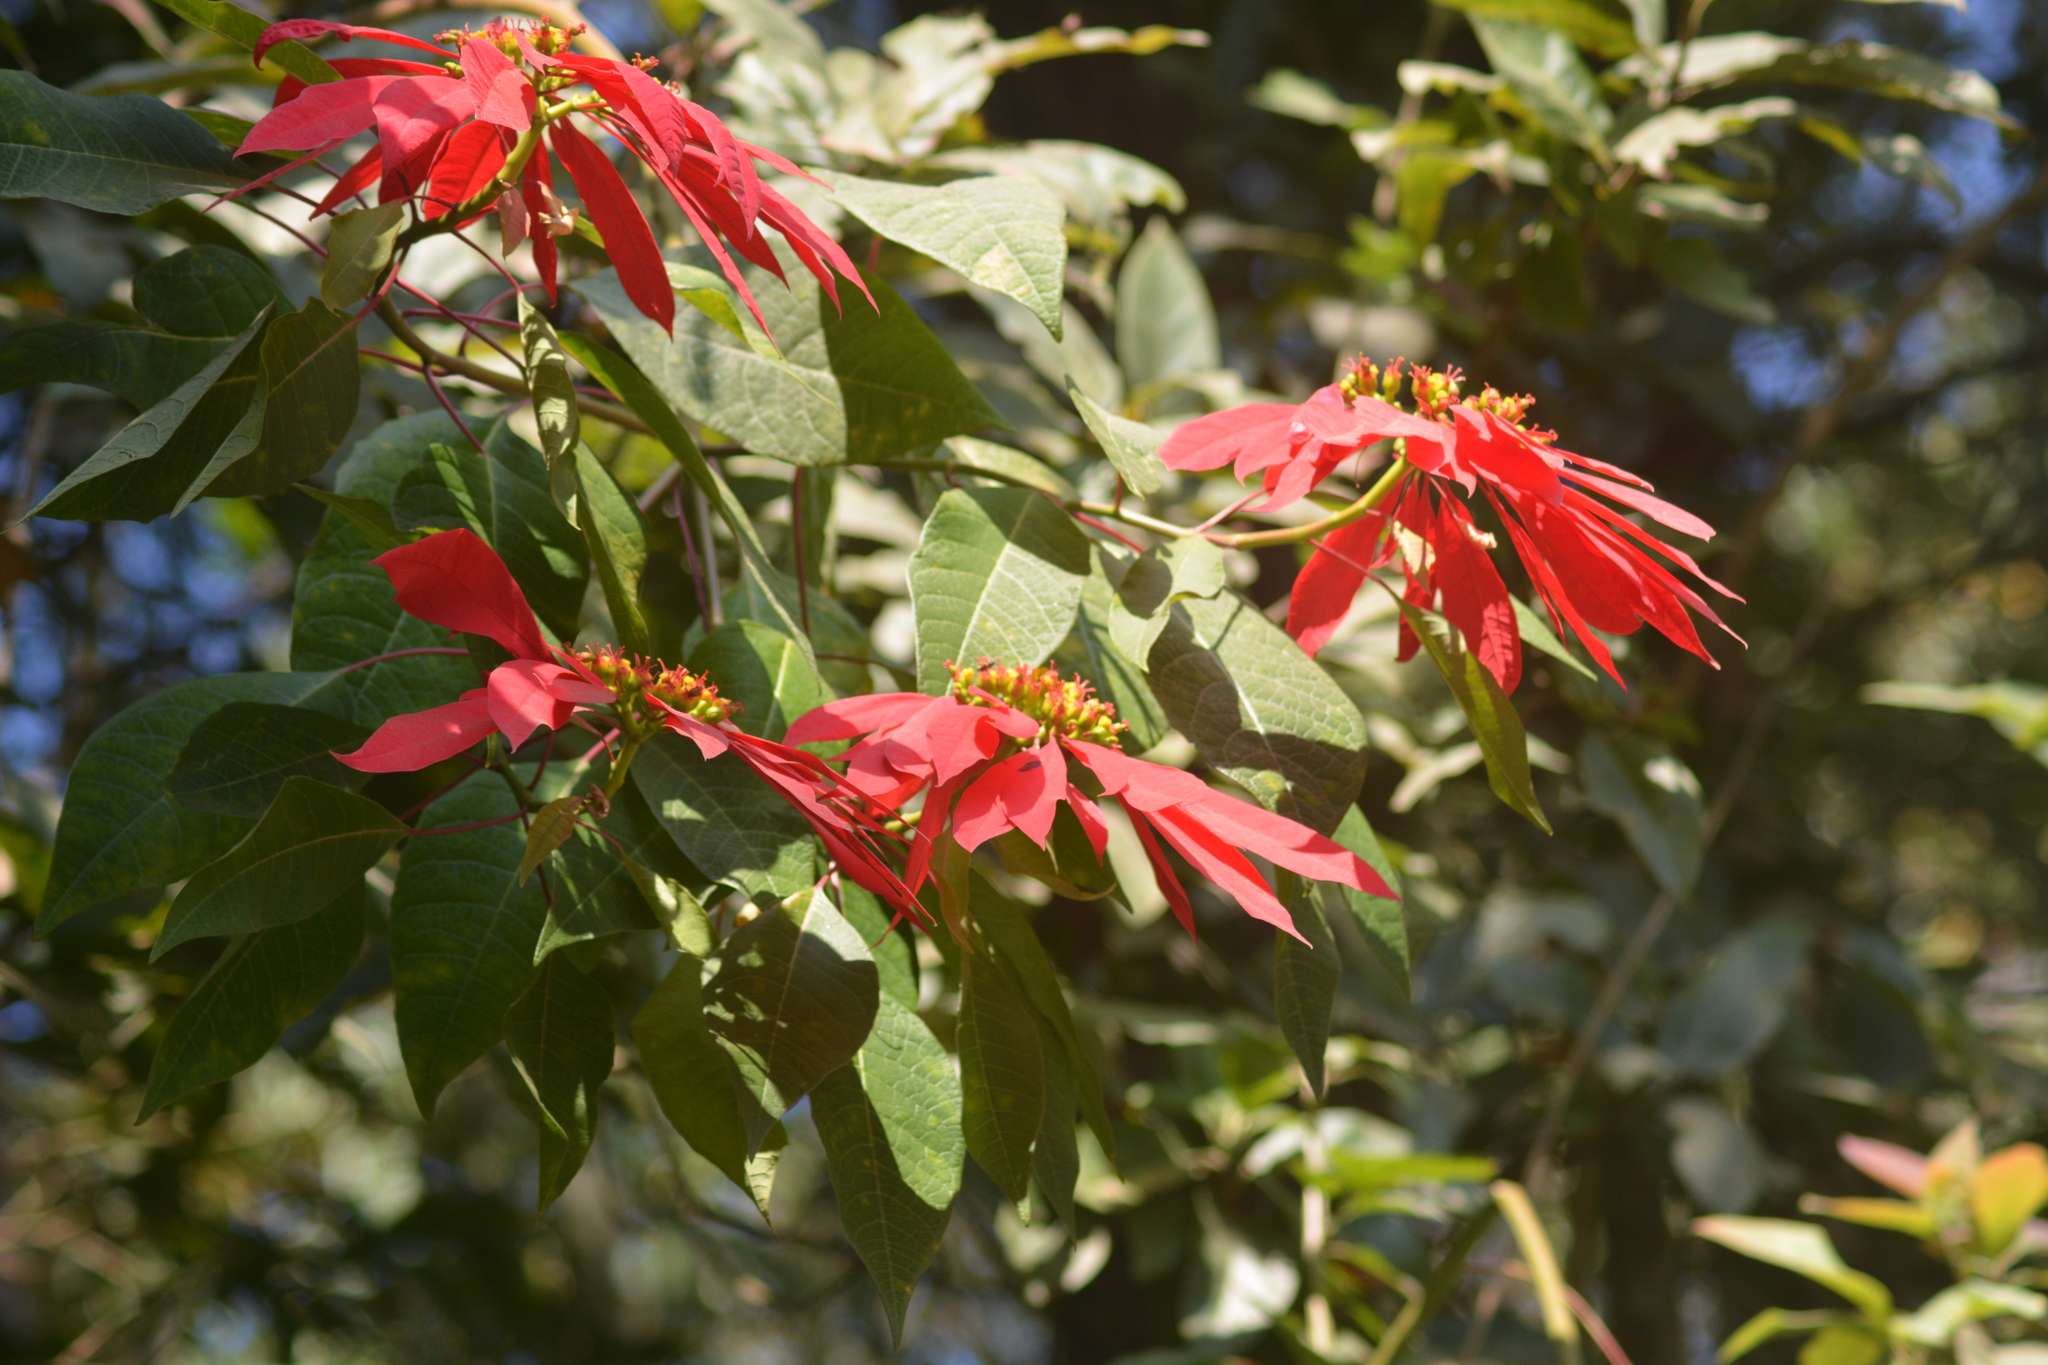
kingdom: Plantae
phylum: Tracheophyta
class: Magnoliopsida
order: Malpighiales
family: Euphorbiaceae
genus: Euphorbia
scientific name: Euphorbia pulcherrima
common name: Christmas-flower
